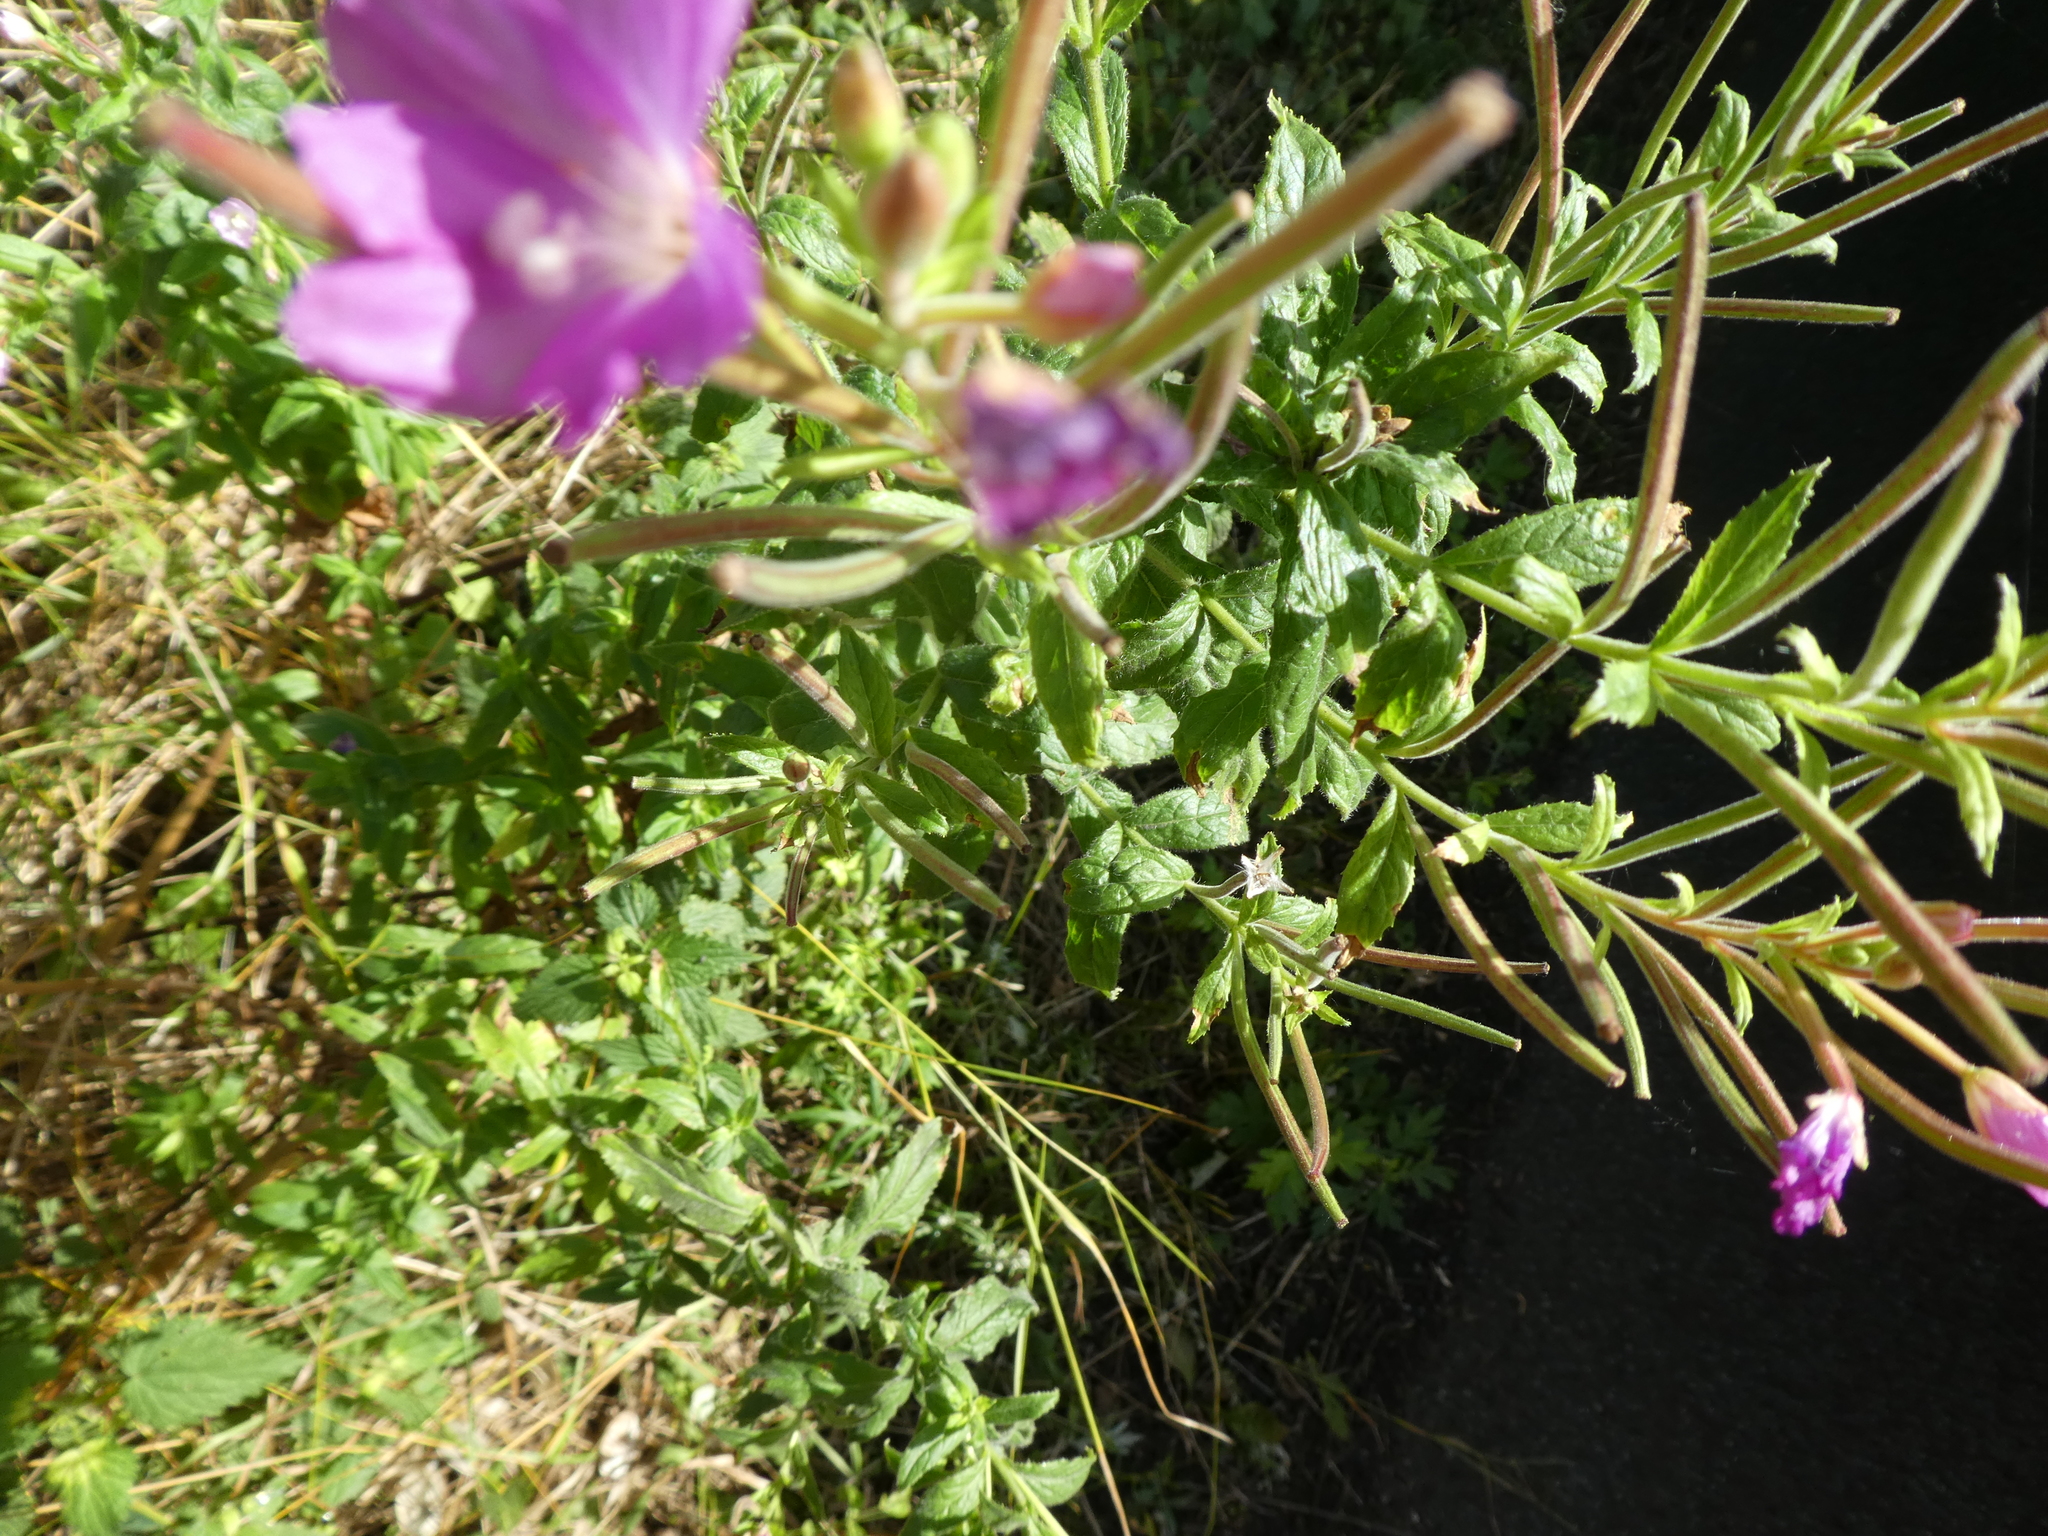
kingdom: Plantae
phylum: Tracheophyta
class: Magnoliopsida
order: Myrtales
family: Onagraceae
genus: Epilobium
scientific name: Epilobium hirsutum
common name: Great willowherb
